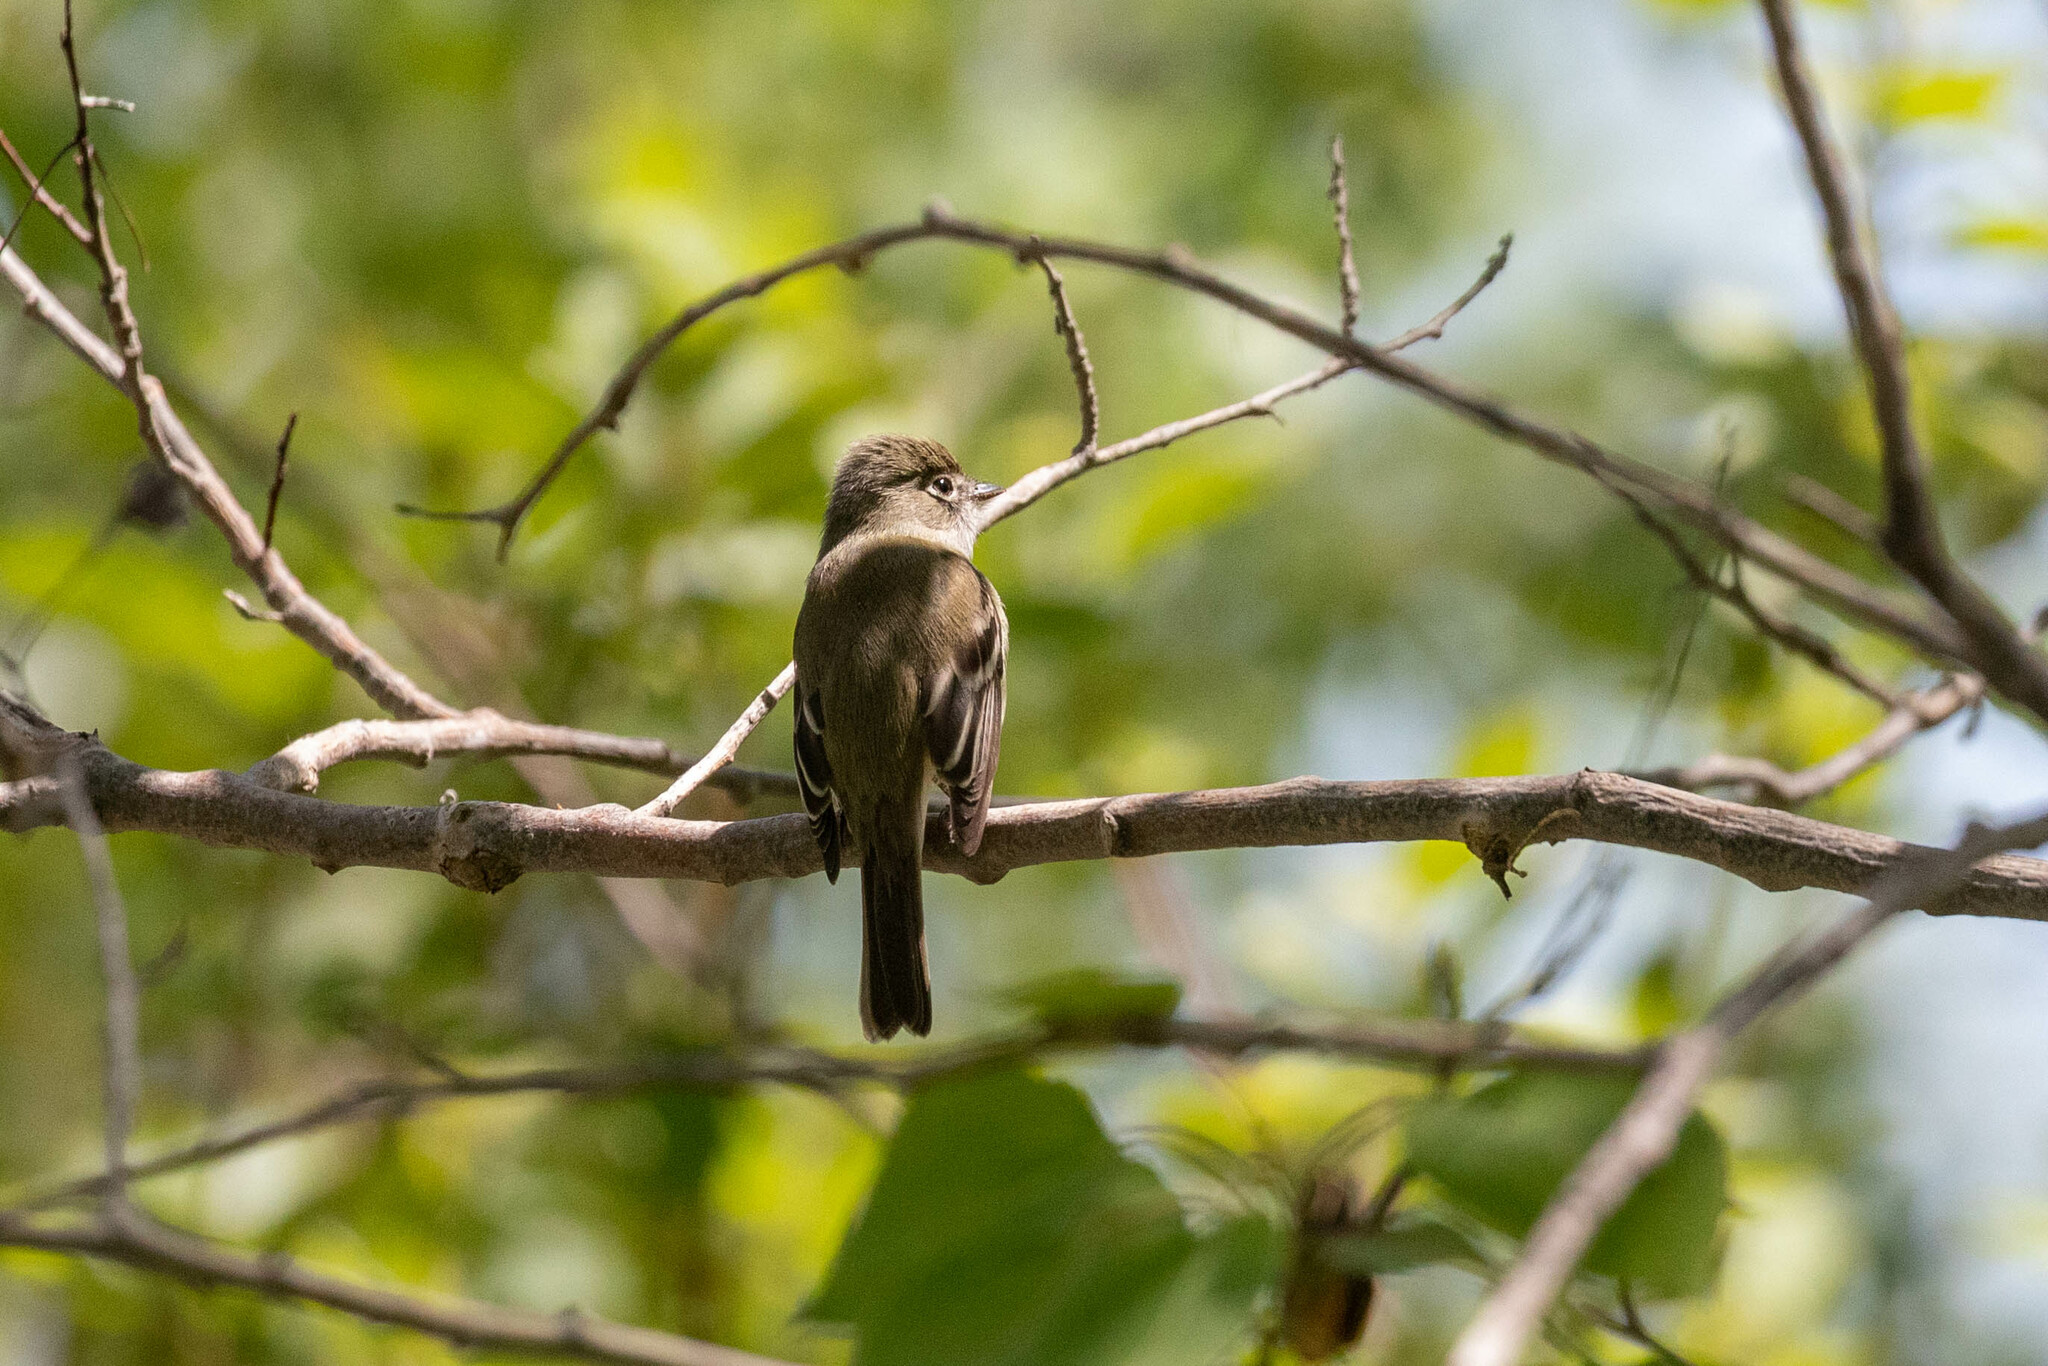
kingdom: Animalia
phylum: Chordata
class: Aves
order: Passeriformes
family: Tyrannidae
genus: Empidonax
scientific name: Empidonax minimus
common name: Least flycatcher
